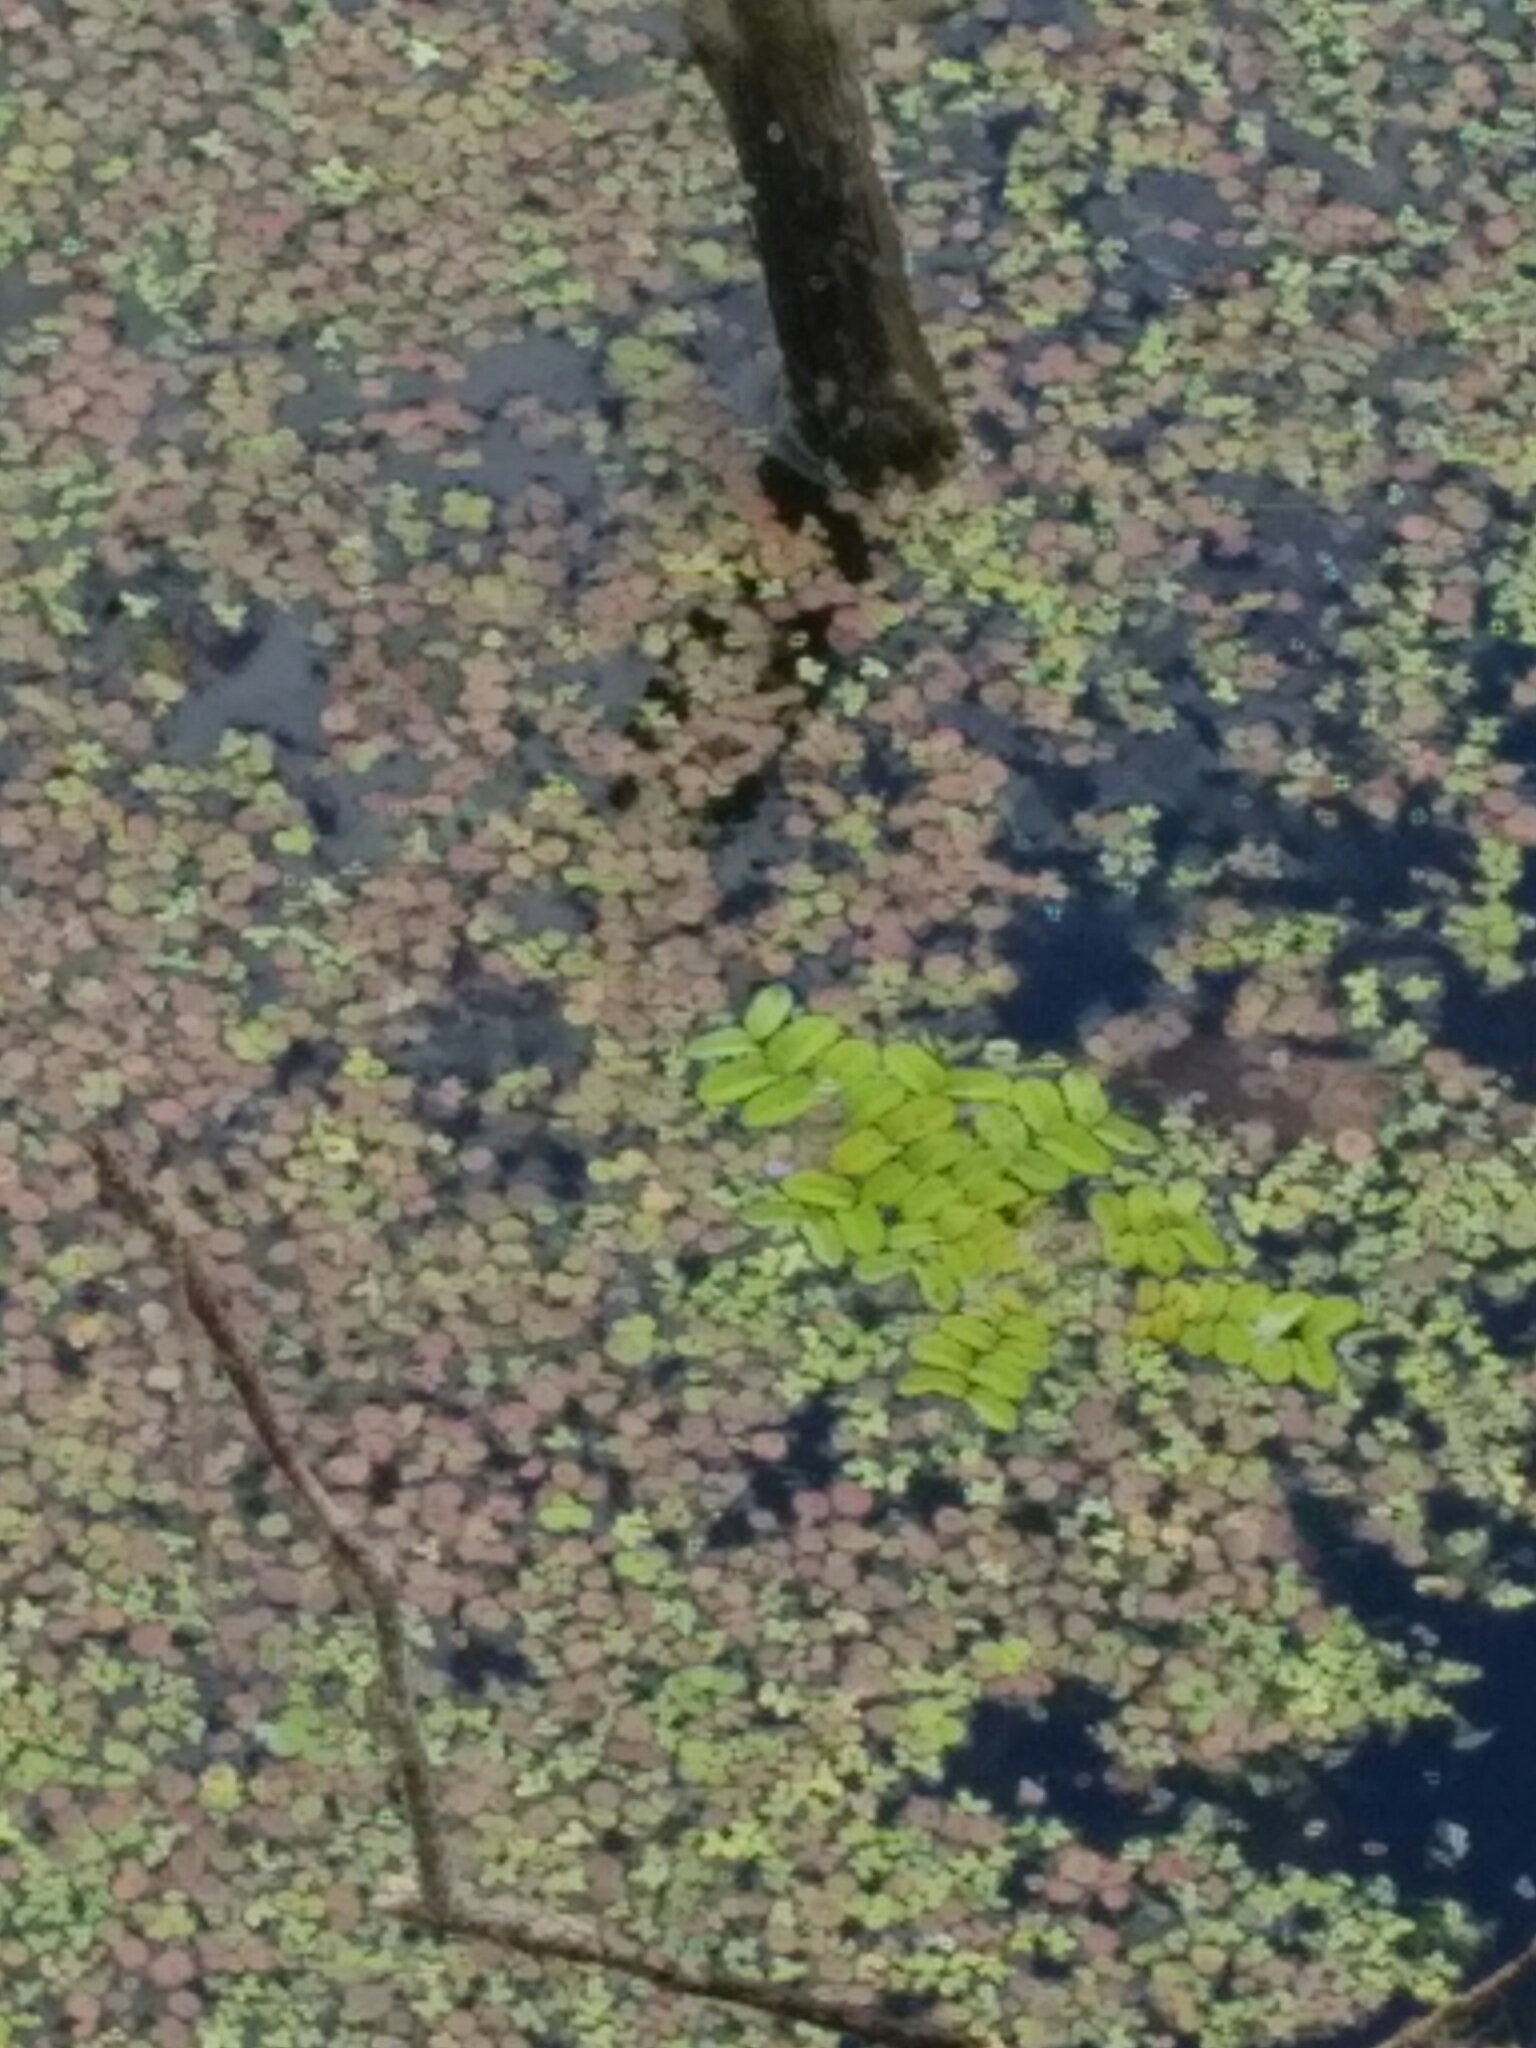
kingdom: Plantae
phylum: Tracheophyta
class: Polypodiopsida
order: Salviniales
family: Salviniaceae
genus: Salvinia
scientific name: Salvinia natans
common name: Floating fern
